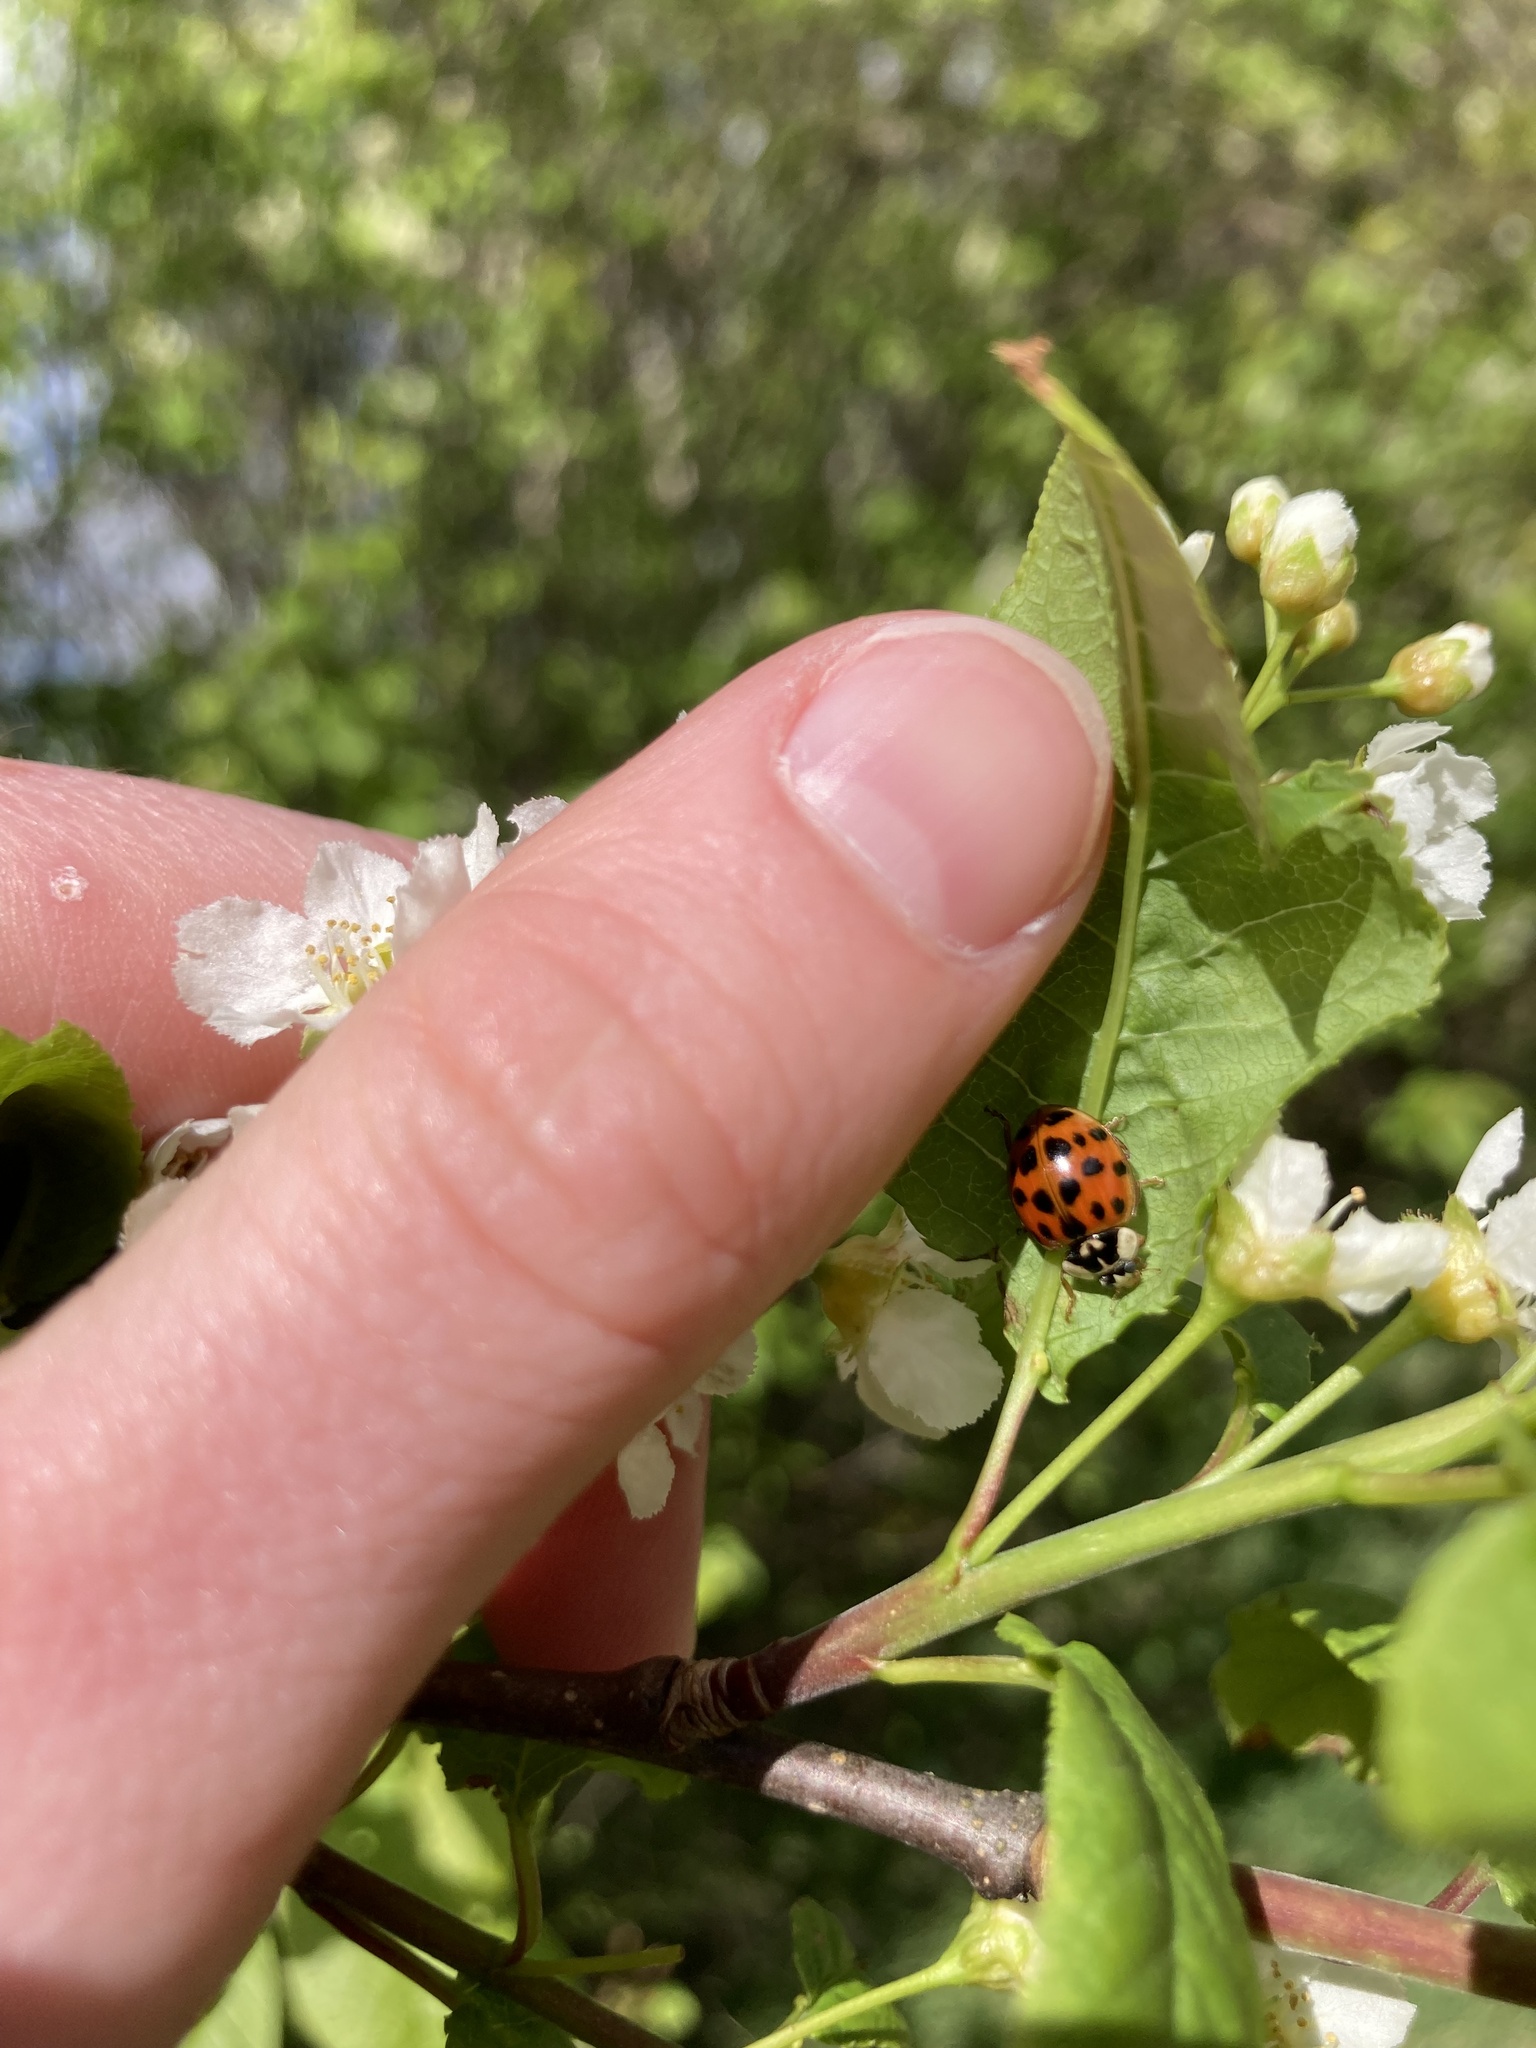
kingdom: Animalia
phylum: Arthropoda
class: Insecta
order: Coleoptera
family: Coccinellidae
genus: Harmonia
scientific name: Harmonia axyridis
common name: Harlequin ladybird
